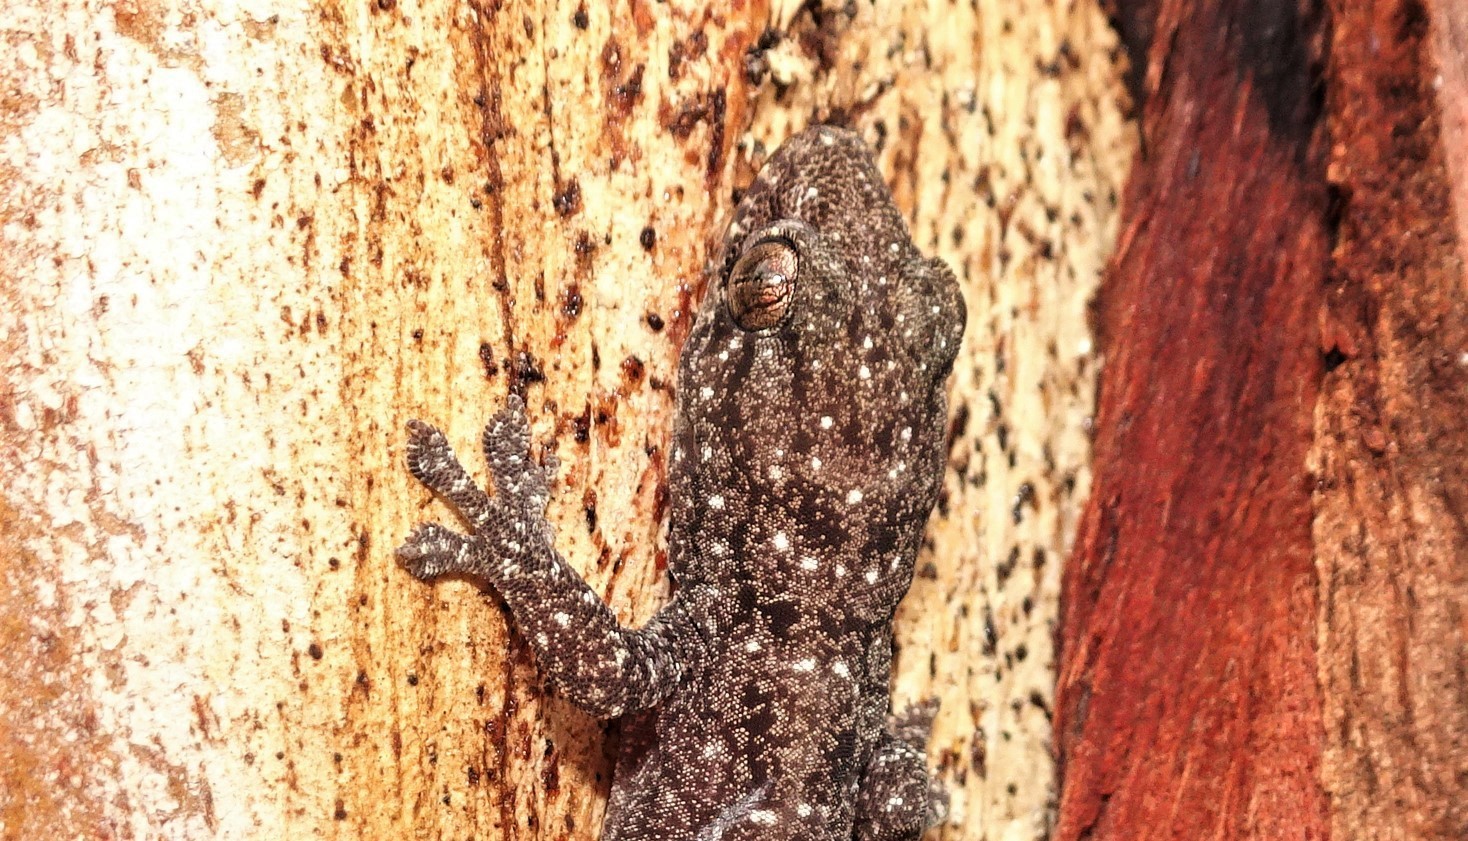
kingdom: Animalia
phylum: Chordata
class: Squamata
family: Gekkonidae
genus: Heteronotia
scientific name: Heteronotia binoei
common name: Bynoe's gecko
